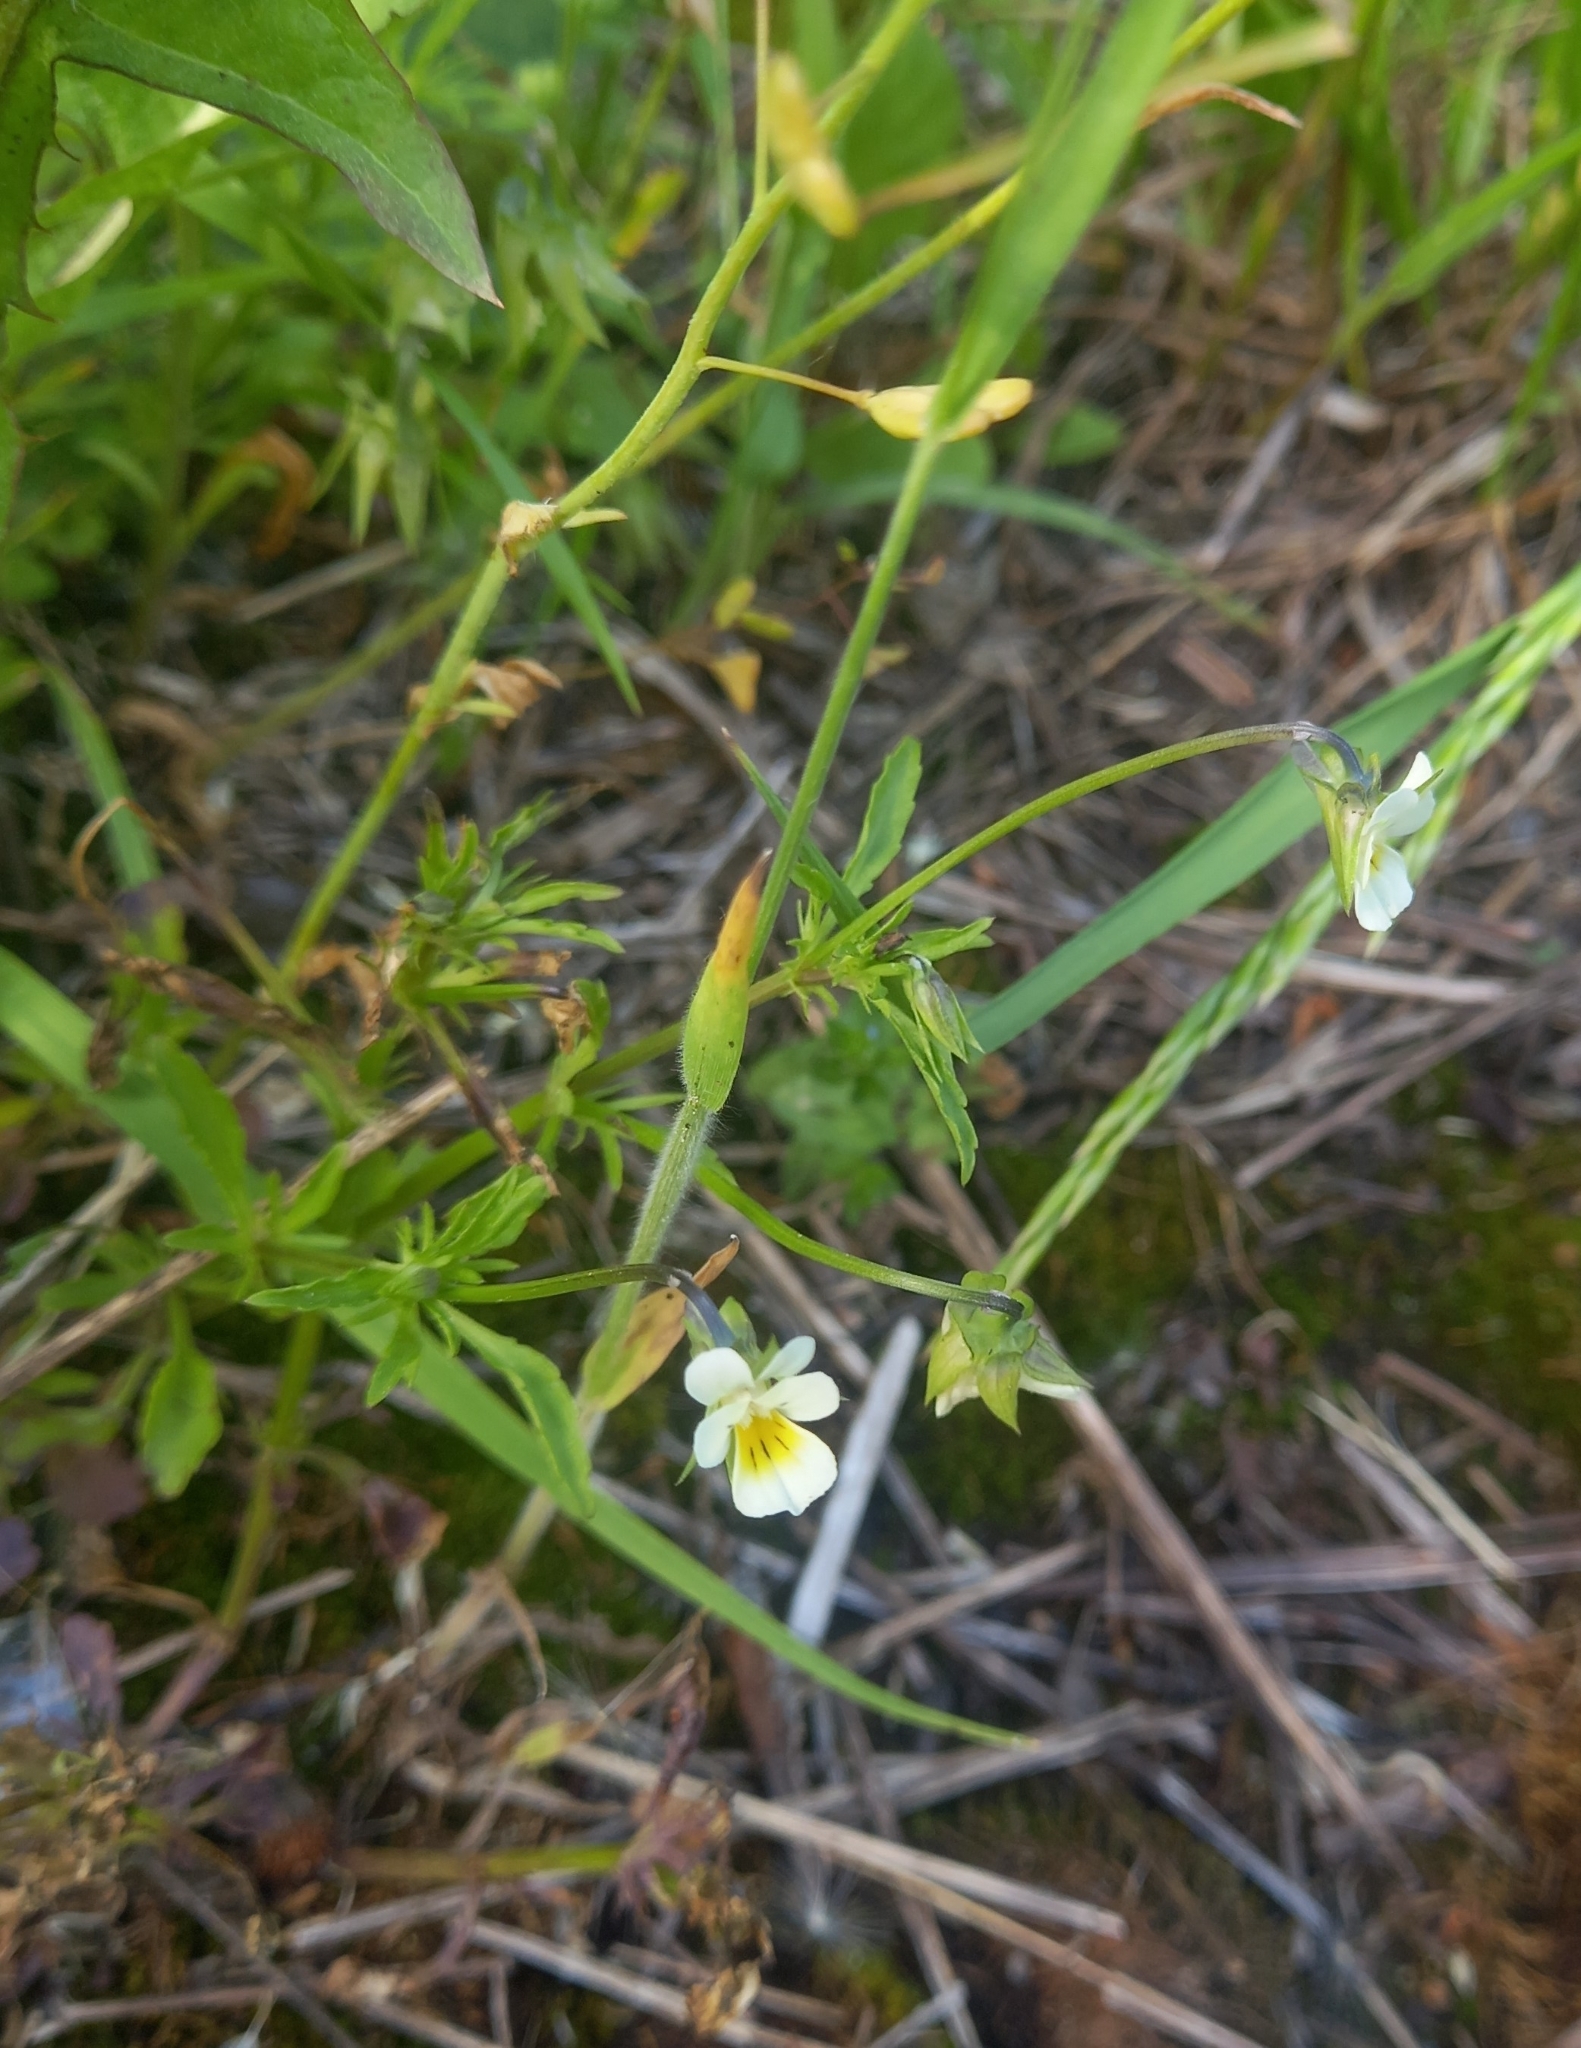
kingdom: Plantae
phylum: Tracheophyta
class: Magnoliopsida
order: Malpighiales
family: Violaceae
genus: Viola
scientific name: Viola arvensis
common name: Field pansy
